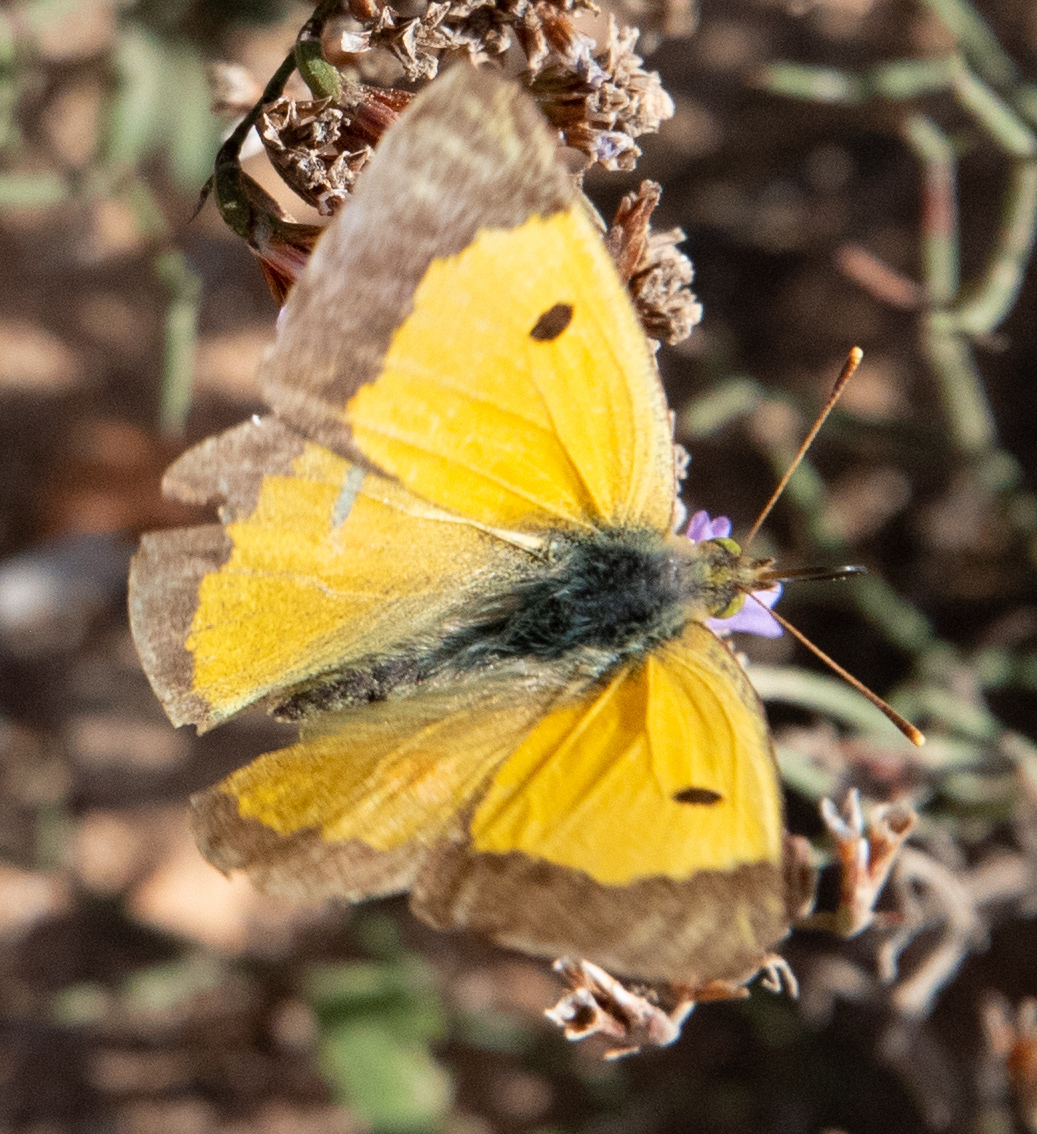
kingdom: Animalia
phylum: Arthropoda
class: Insecta
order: Lepidoptera
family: Pieridae
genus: Colias
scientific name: Colias croceus
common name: Clouded yellow
